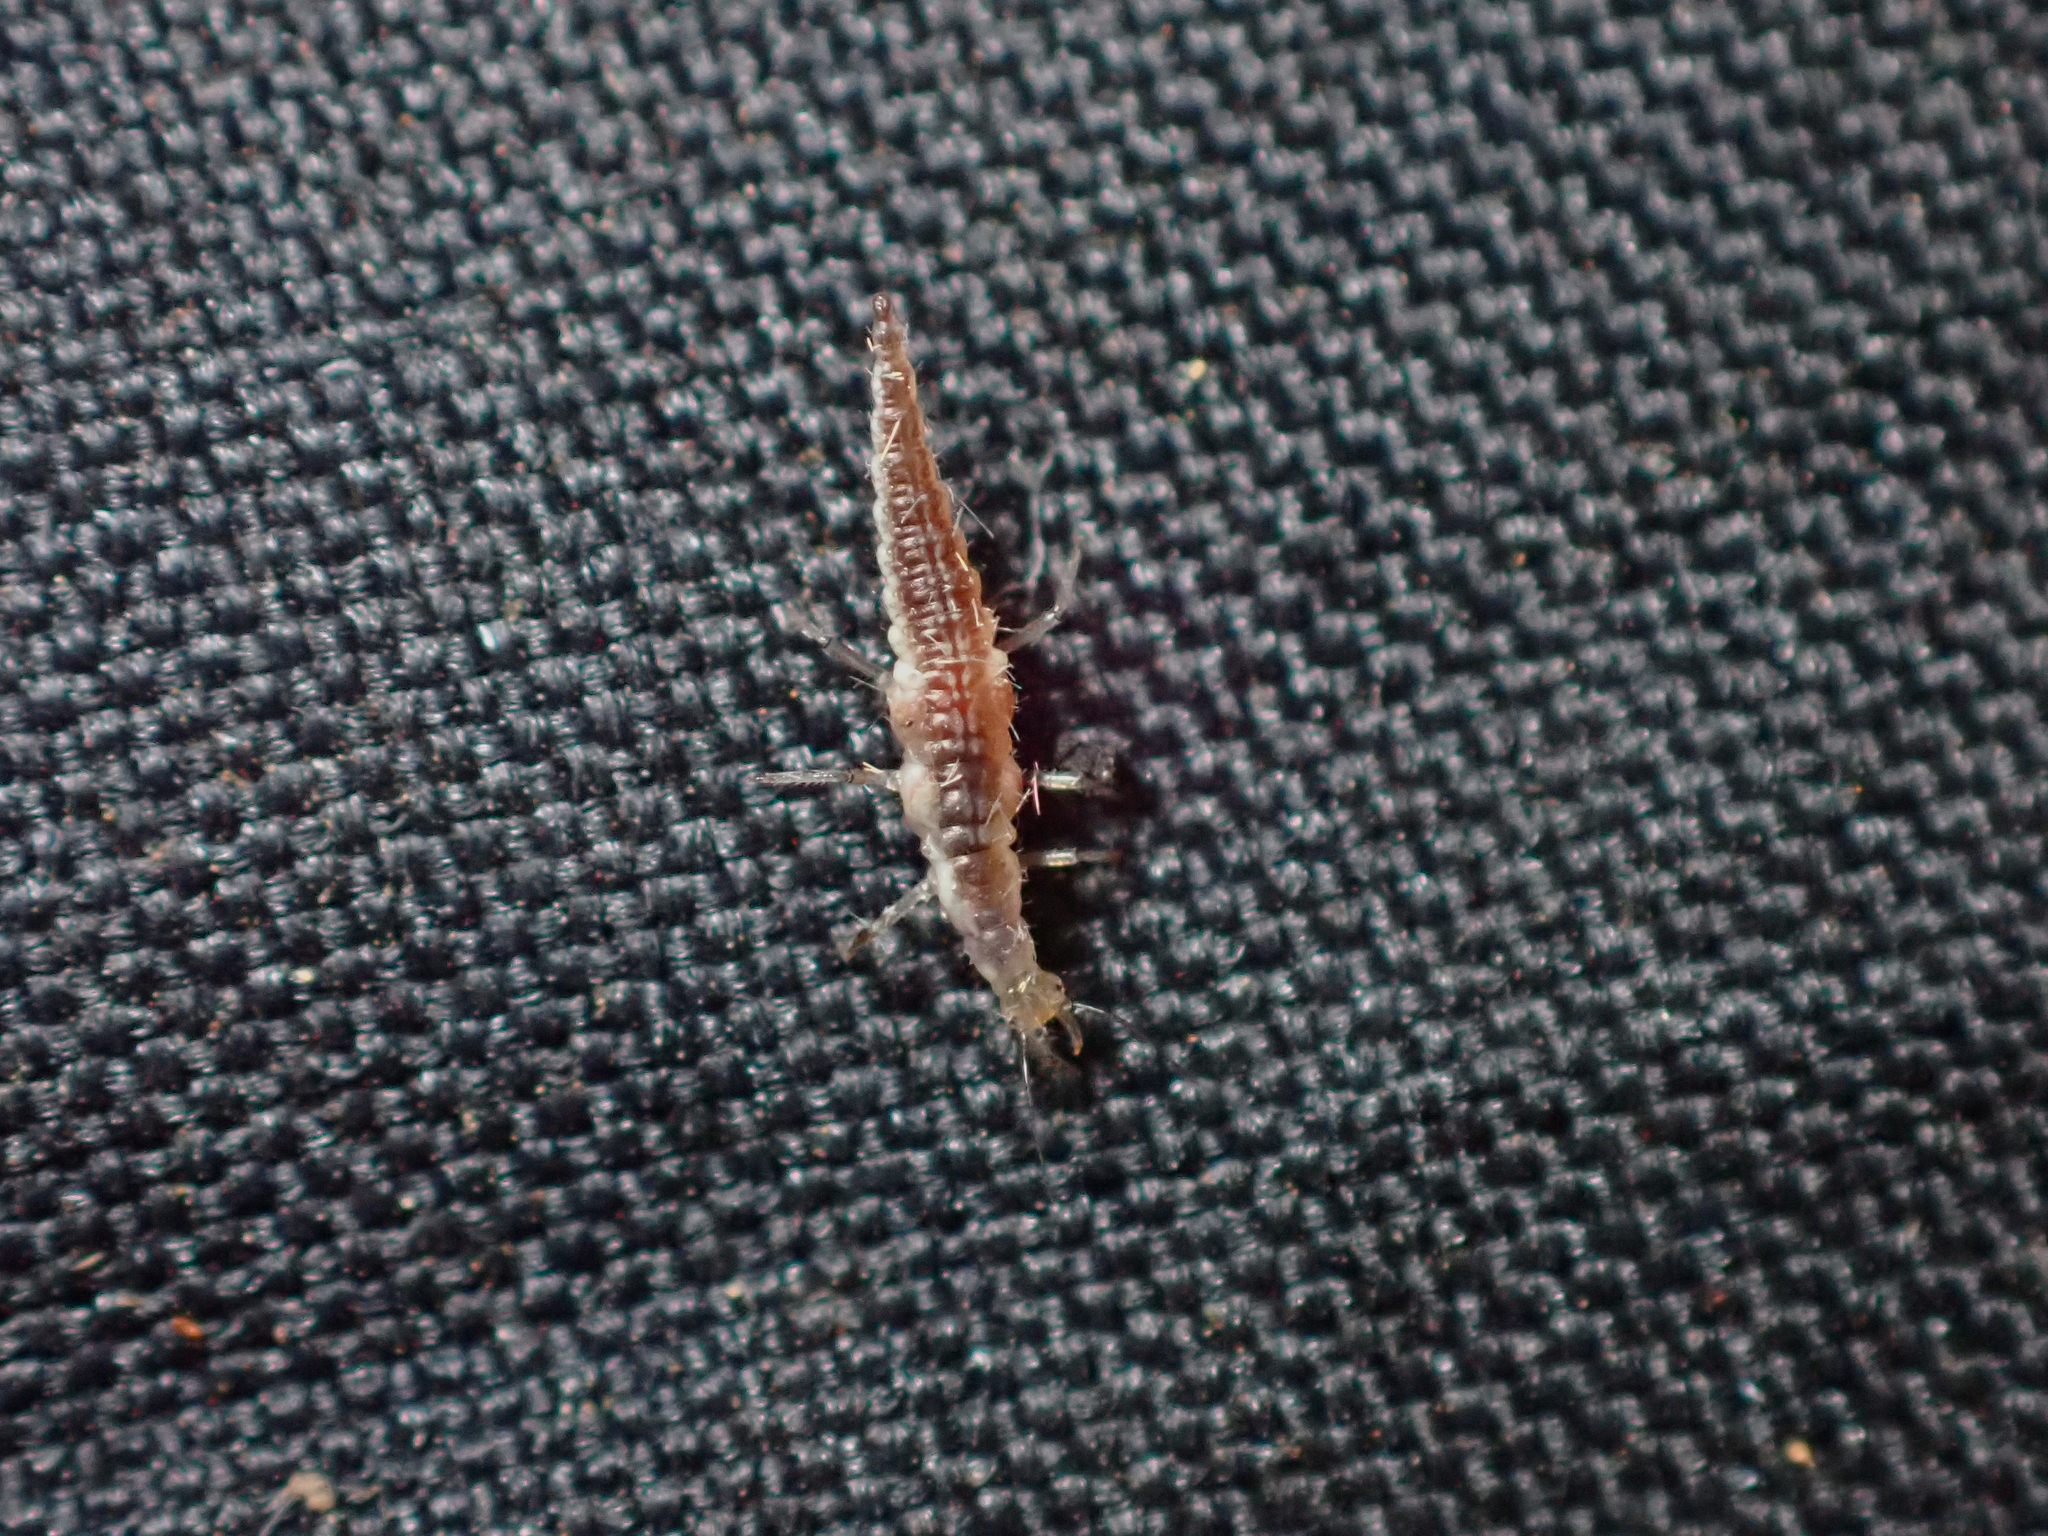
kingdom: Animalia
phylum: Arthropoda
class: Insecta
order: Neuroptera
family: Hemerobiidae
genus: Micromus
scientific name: Micromus tasmaniae
